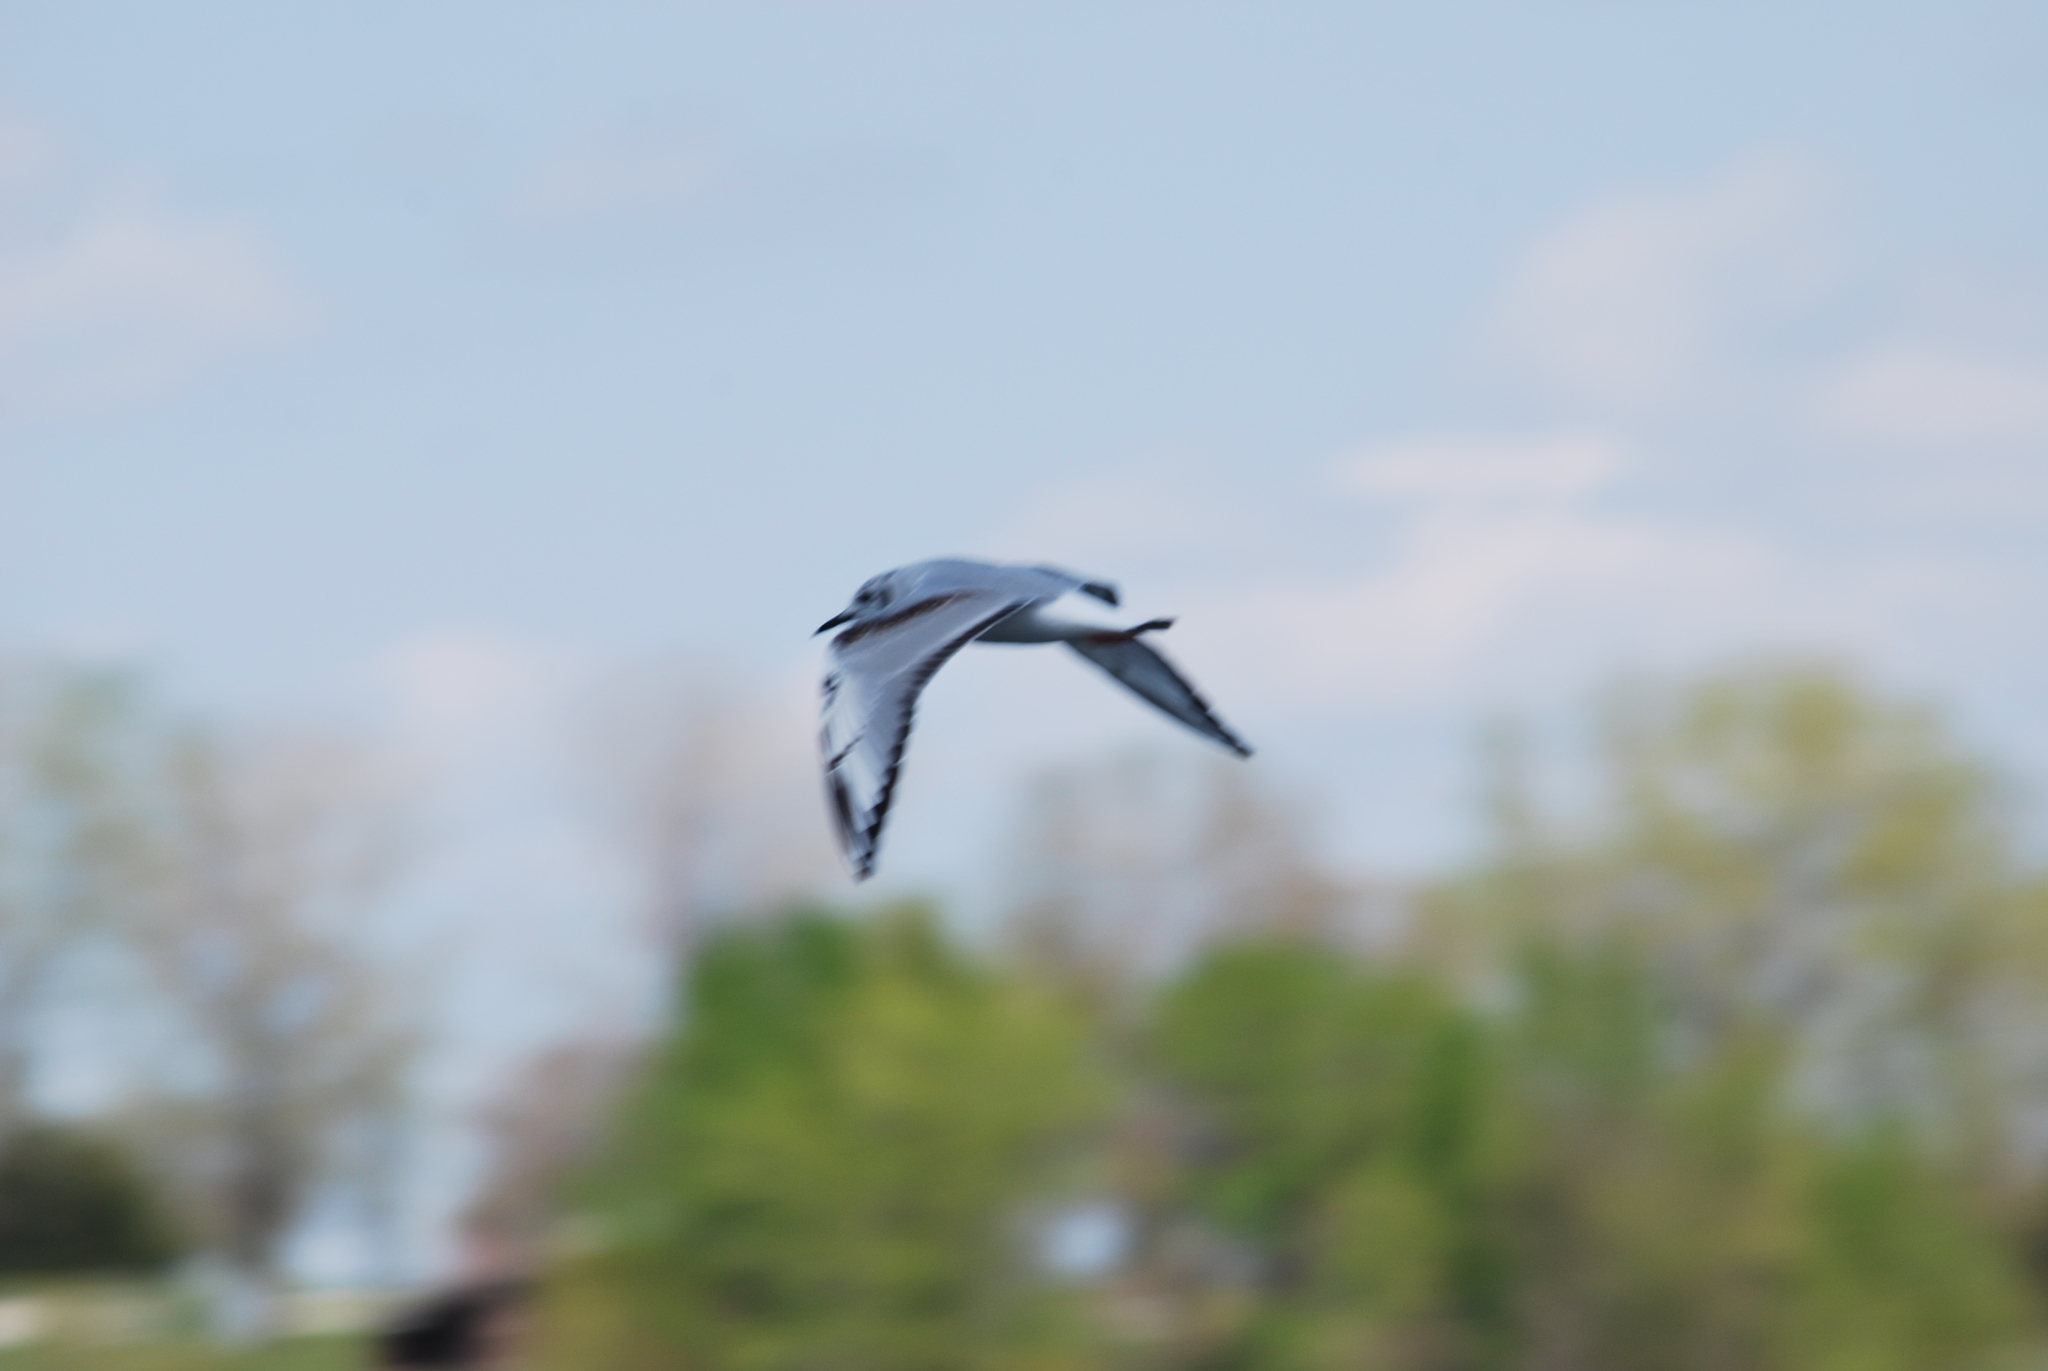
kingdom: Animalia
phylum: Chordata
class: Aves
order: Charadriiformes
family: Laridae
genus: Chroicocephalus
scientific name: Chroicocephalus philadelphia
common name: Bonaparte's gull
